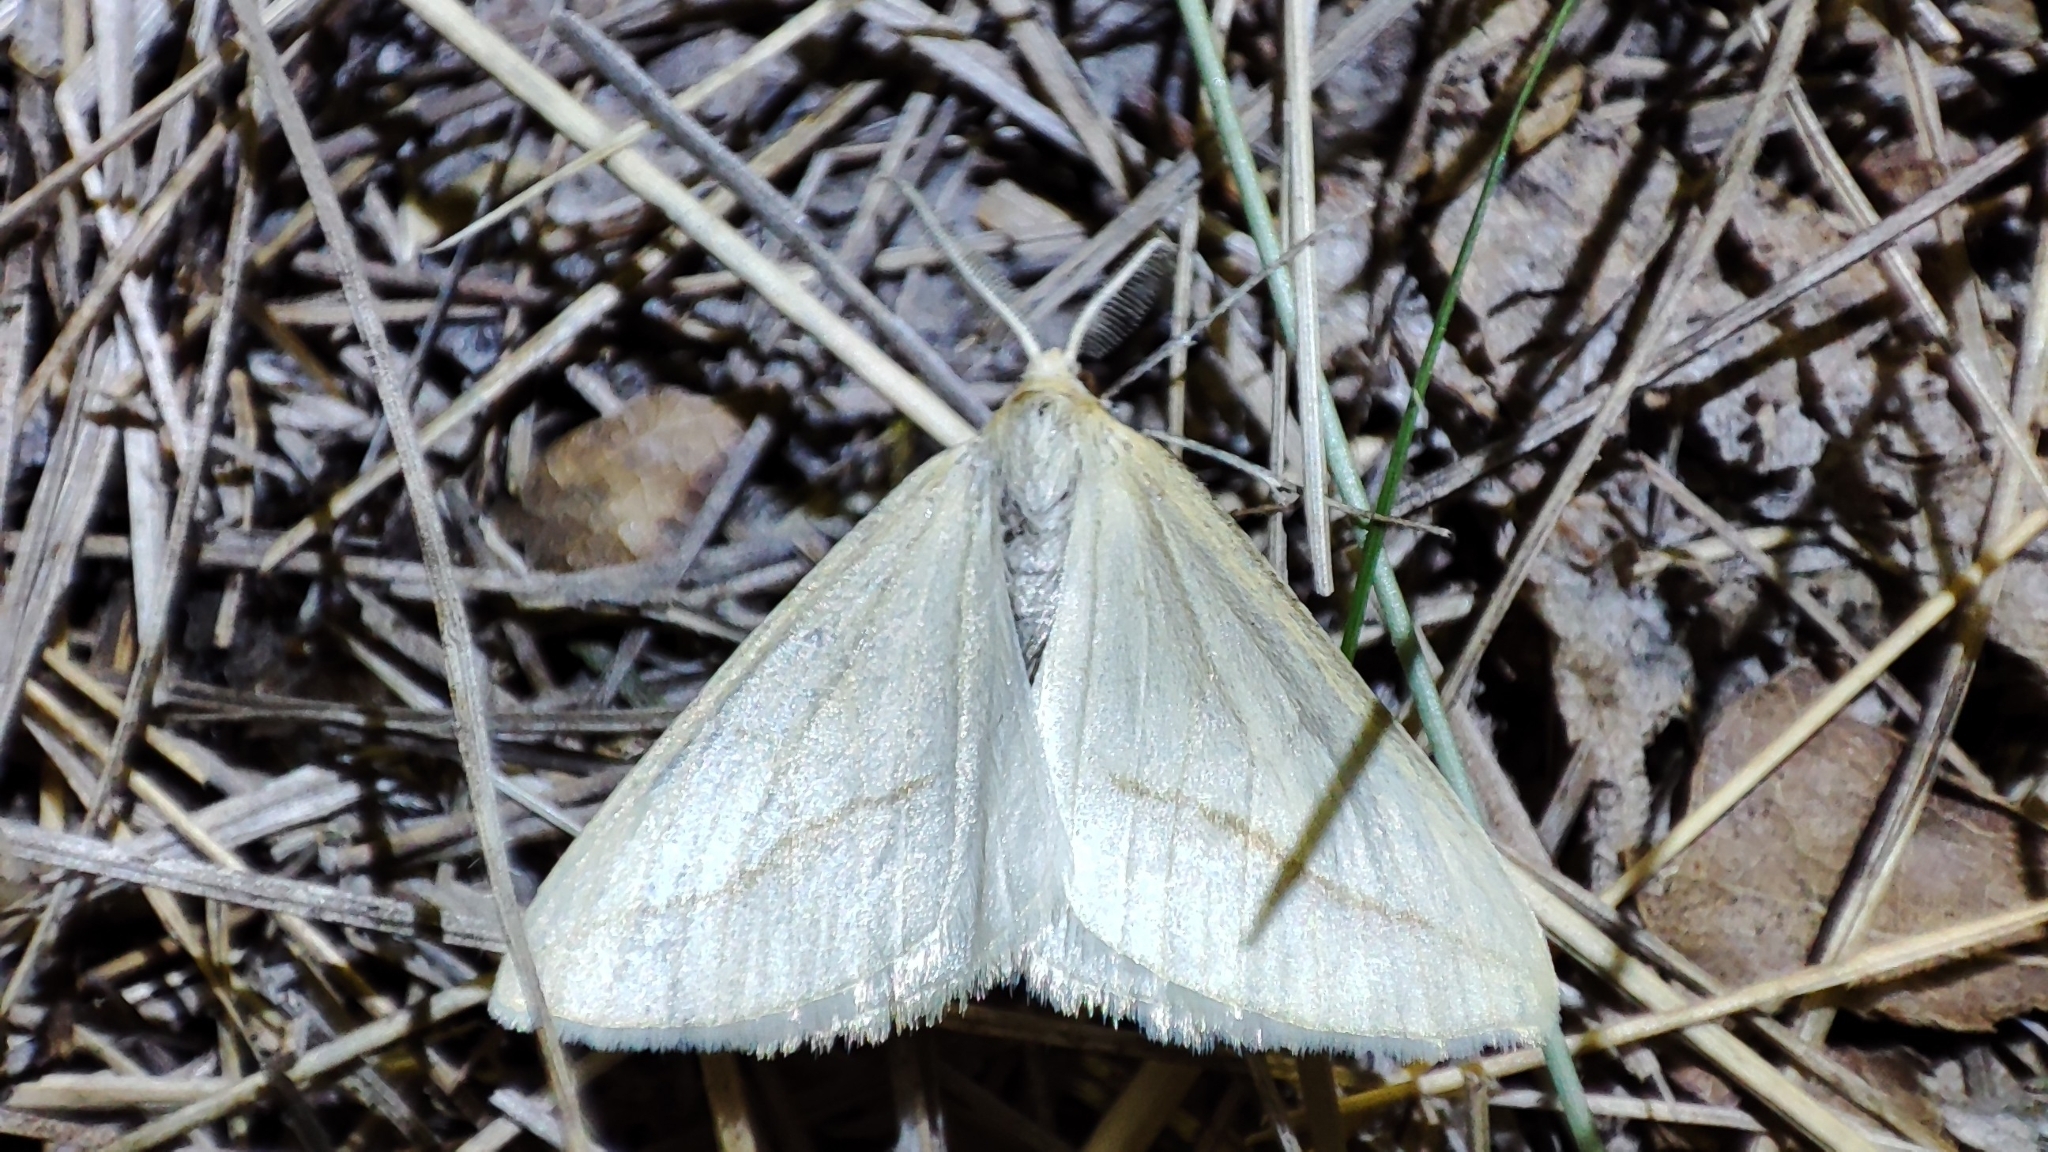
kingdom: Animalia
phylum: Arthropoda
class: Insecta
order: Lepidoptera
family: Geometridae
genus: Aspitates
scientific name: Aspitates gilvaria
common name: Straw belle
